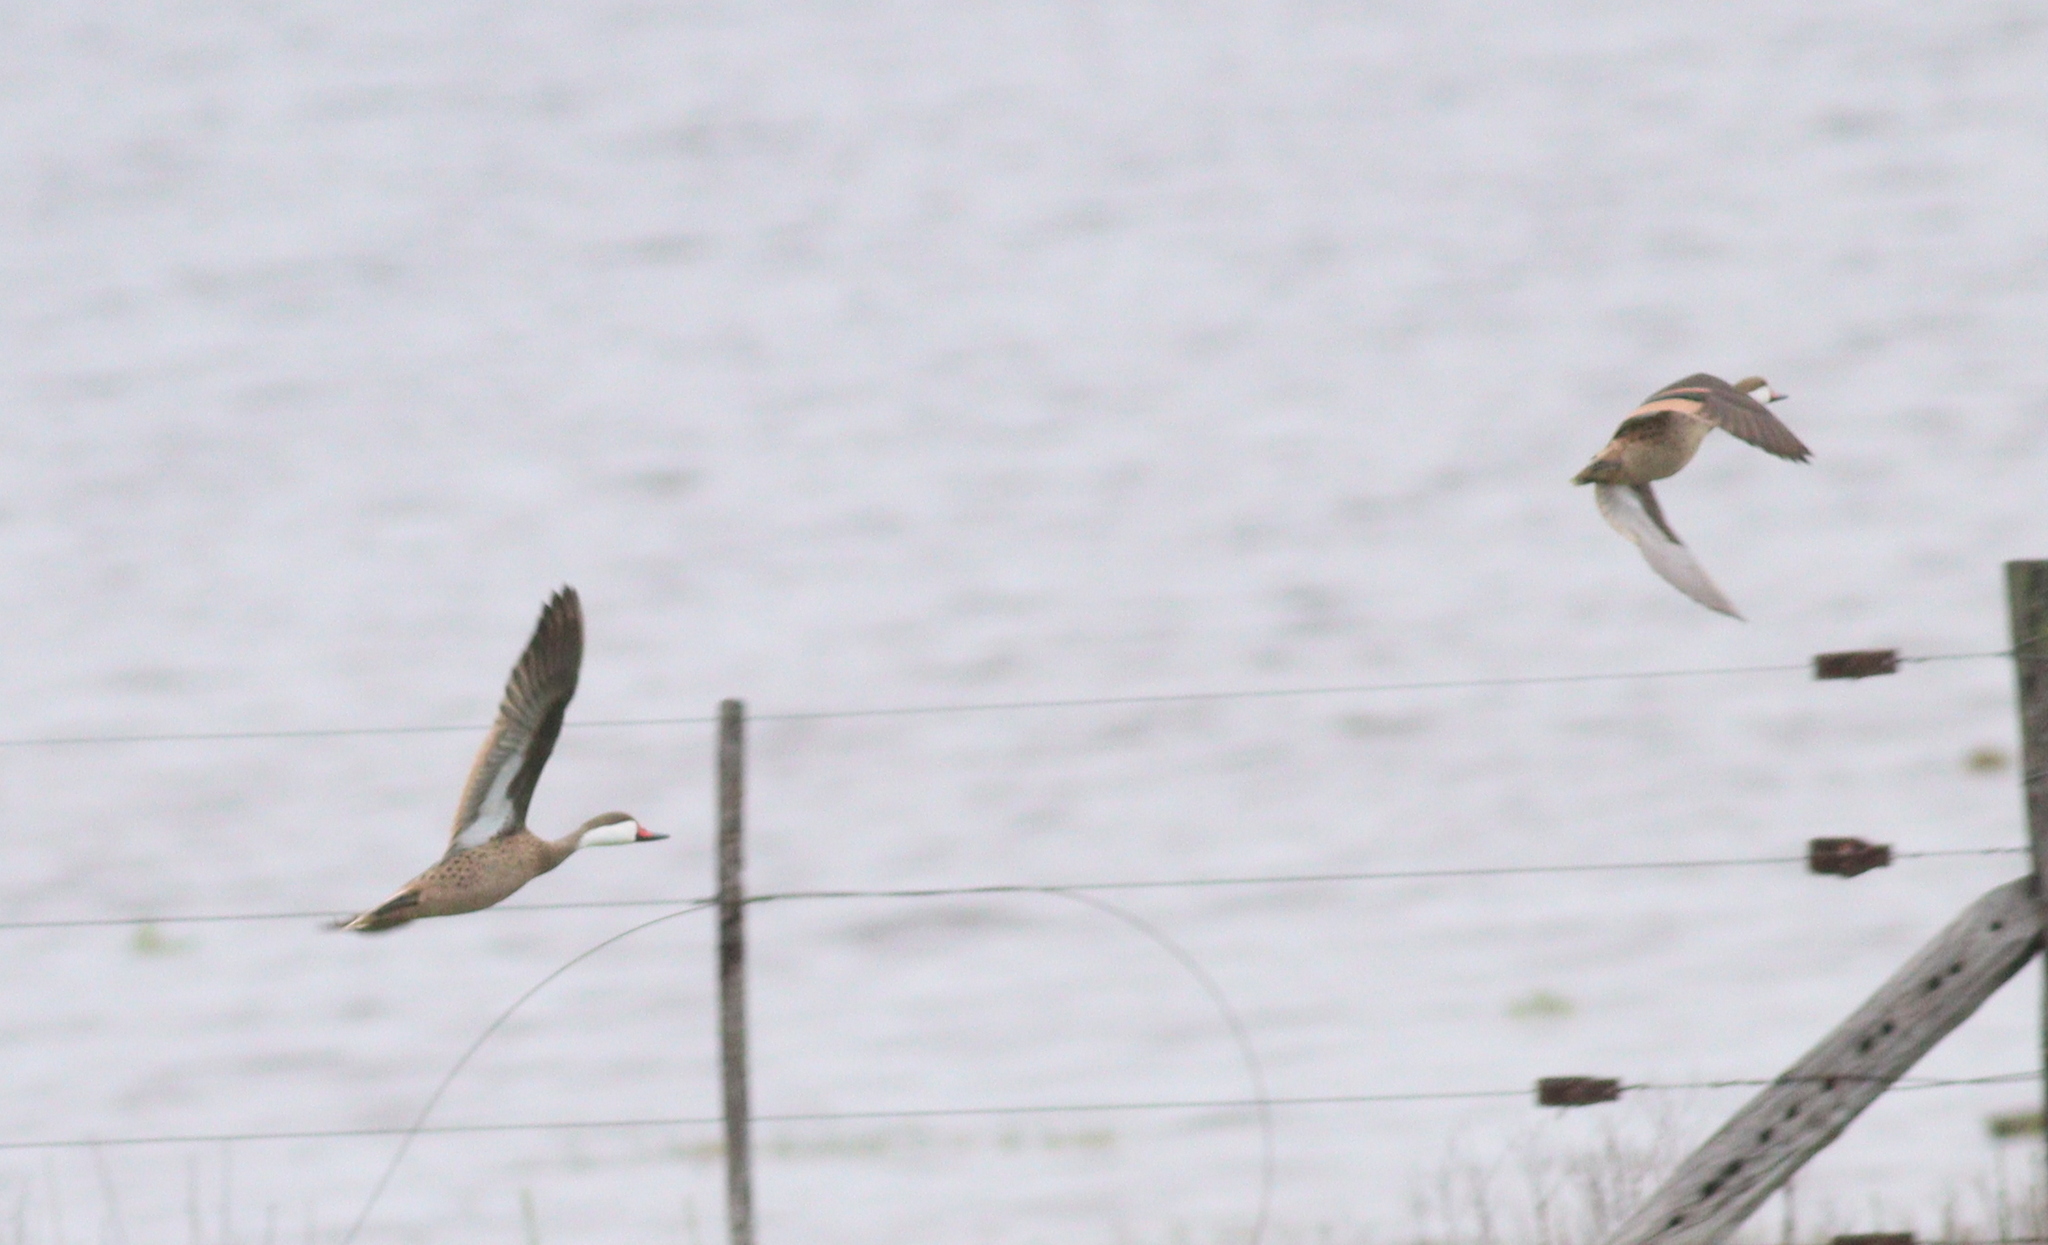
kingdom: Animalia
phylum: Chordata
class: Aves
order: Anseriformes
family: Anatidae
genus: Anas
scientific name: Anas bahamensis
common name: White-cheeked pintail
